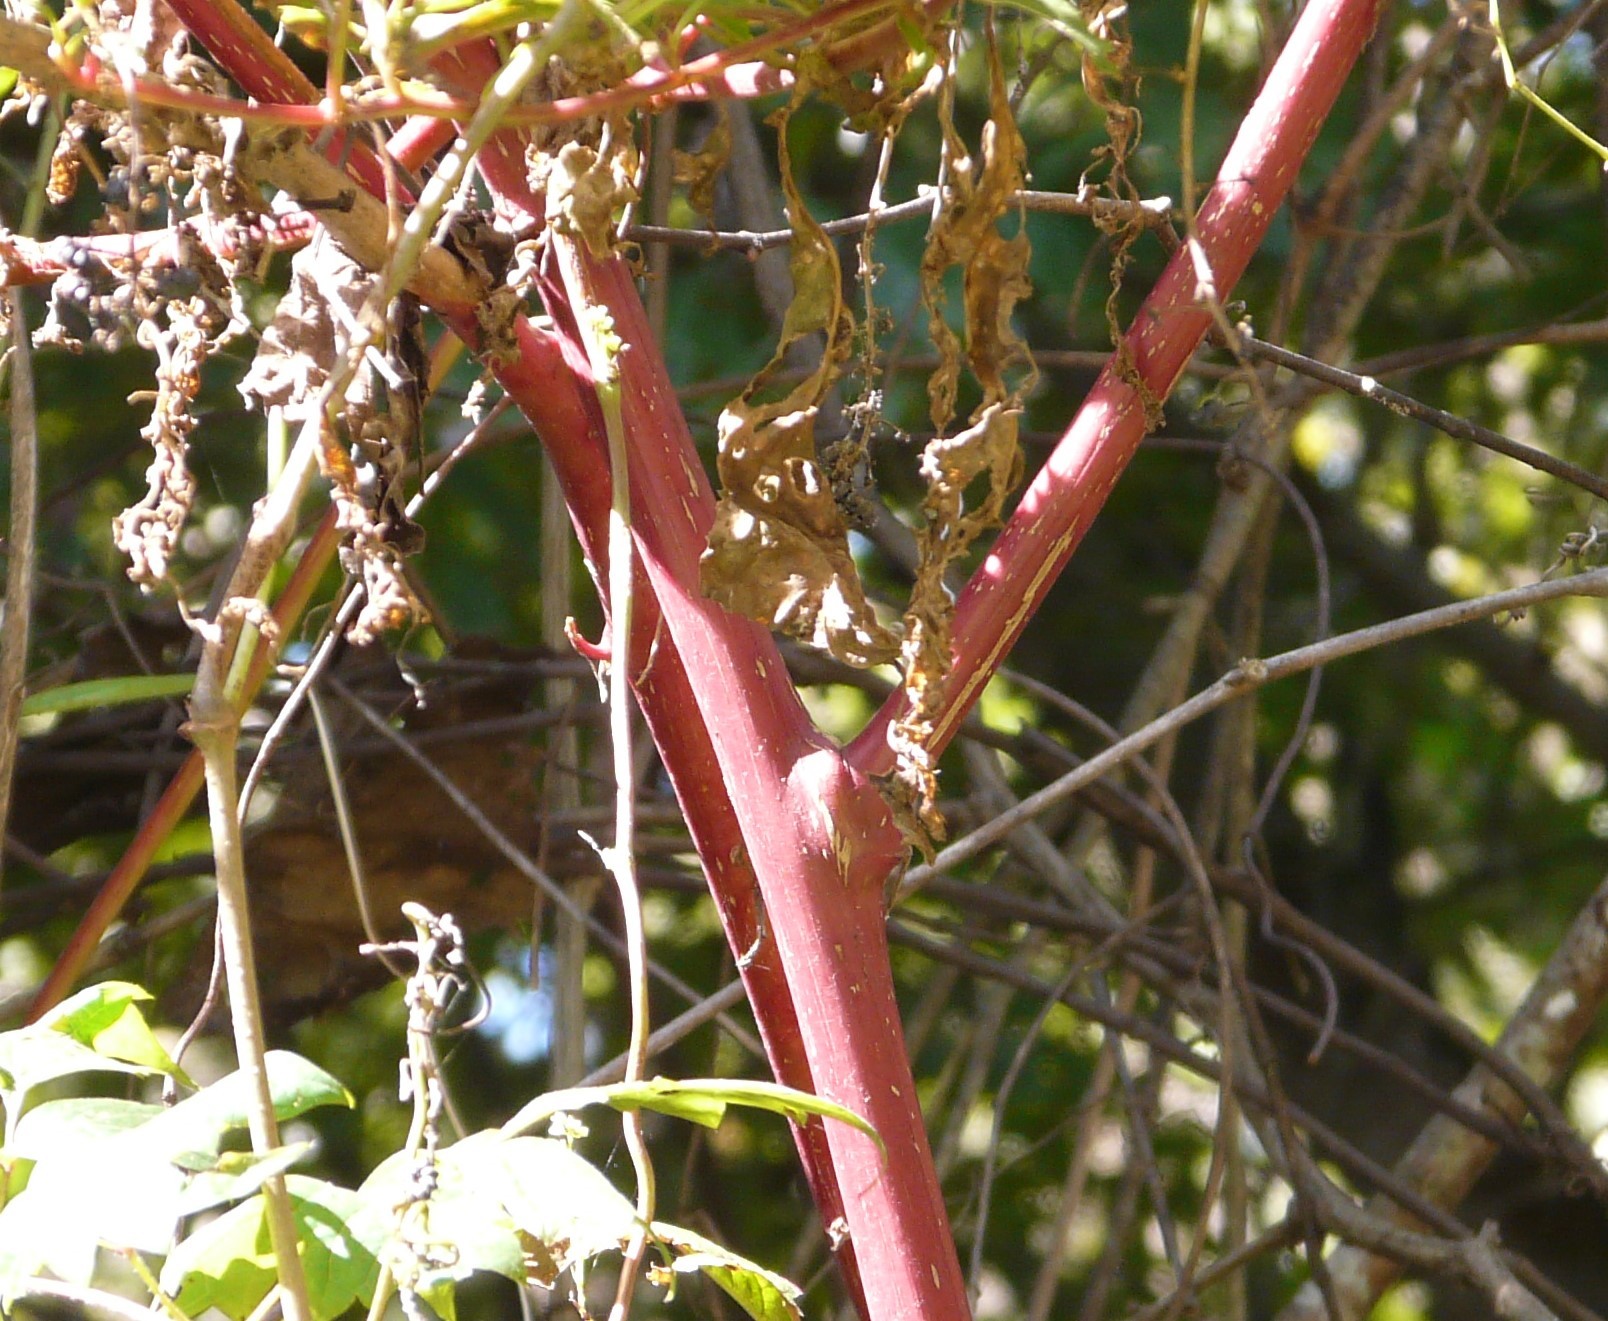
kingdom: Plantae
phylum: Tracheophyta
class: Magnoliopsida
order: Caryophyllales
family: Phytolaccaceae
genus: Phytolacca
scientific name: Phytolacca americana
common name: American pokeweed
